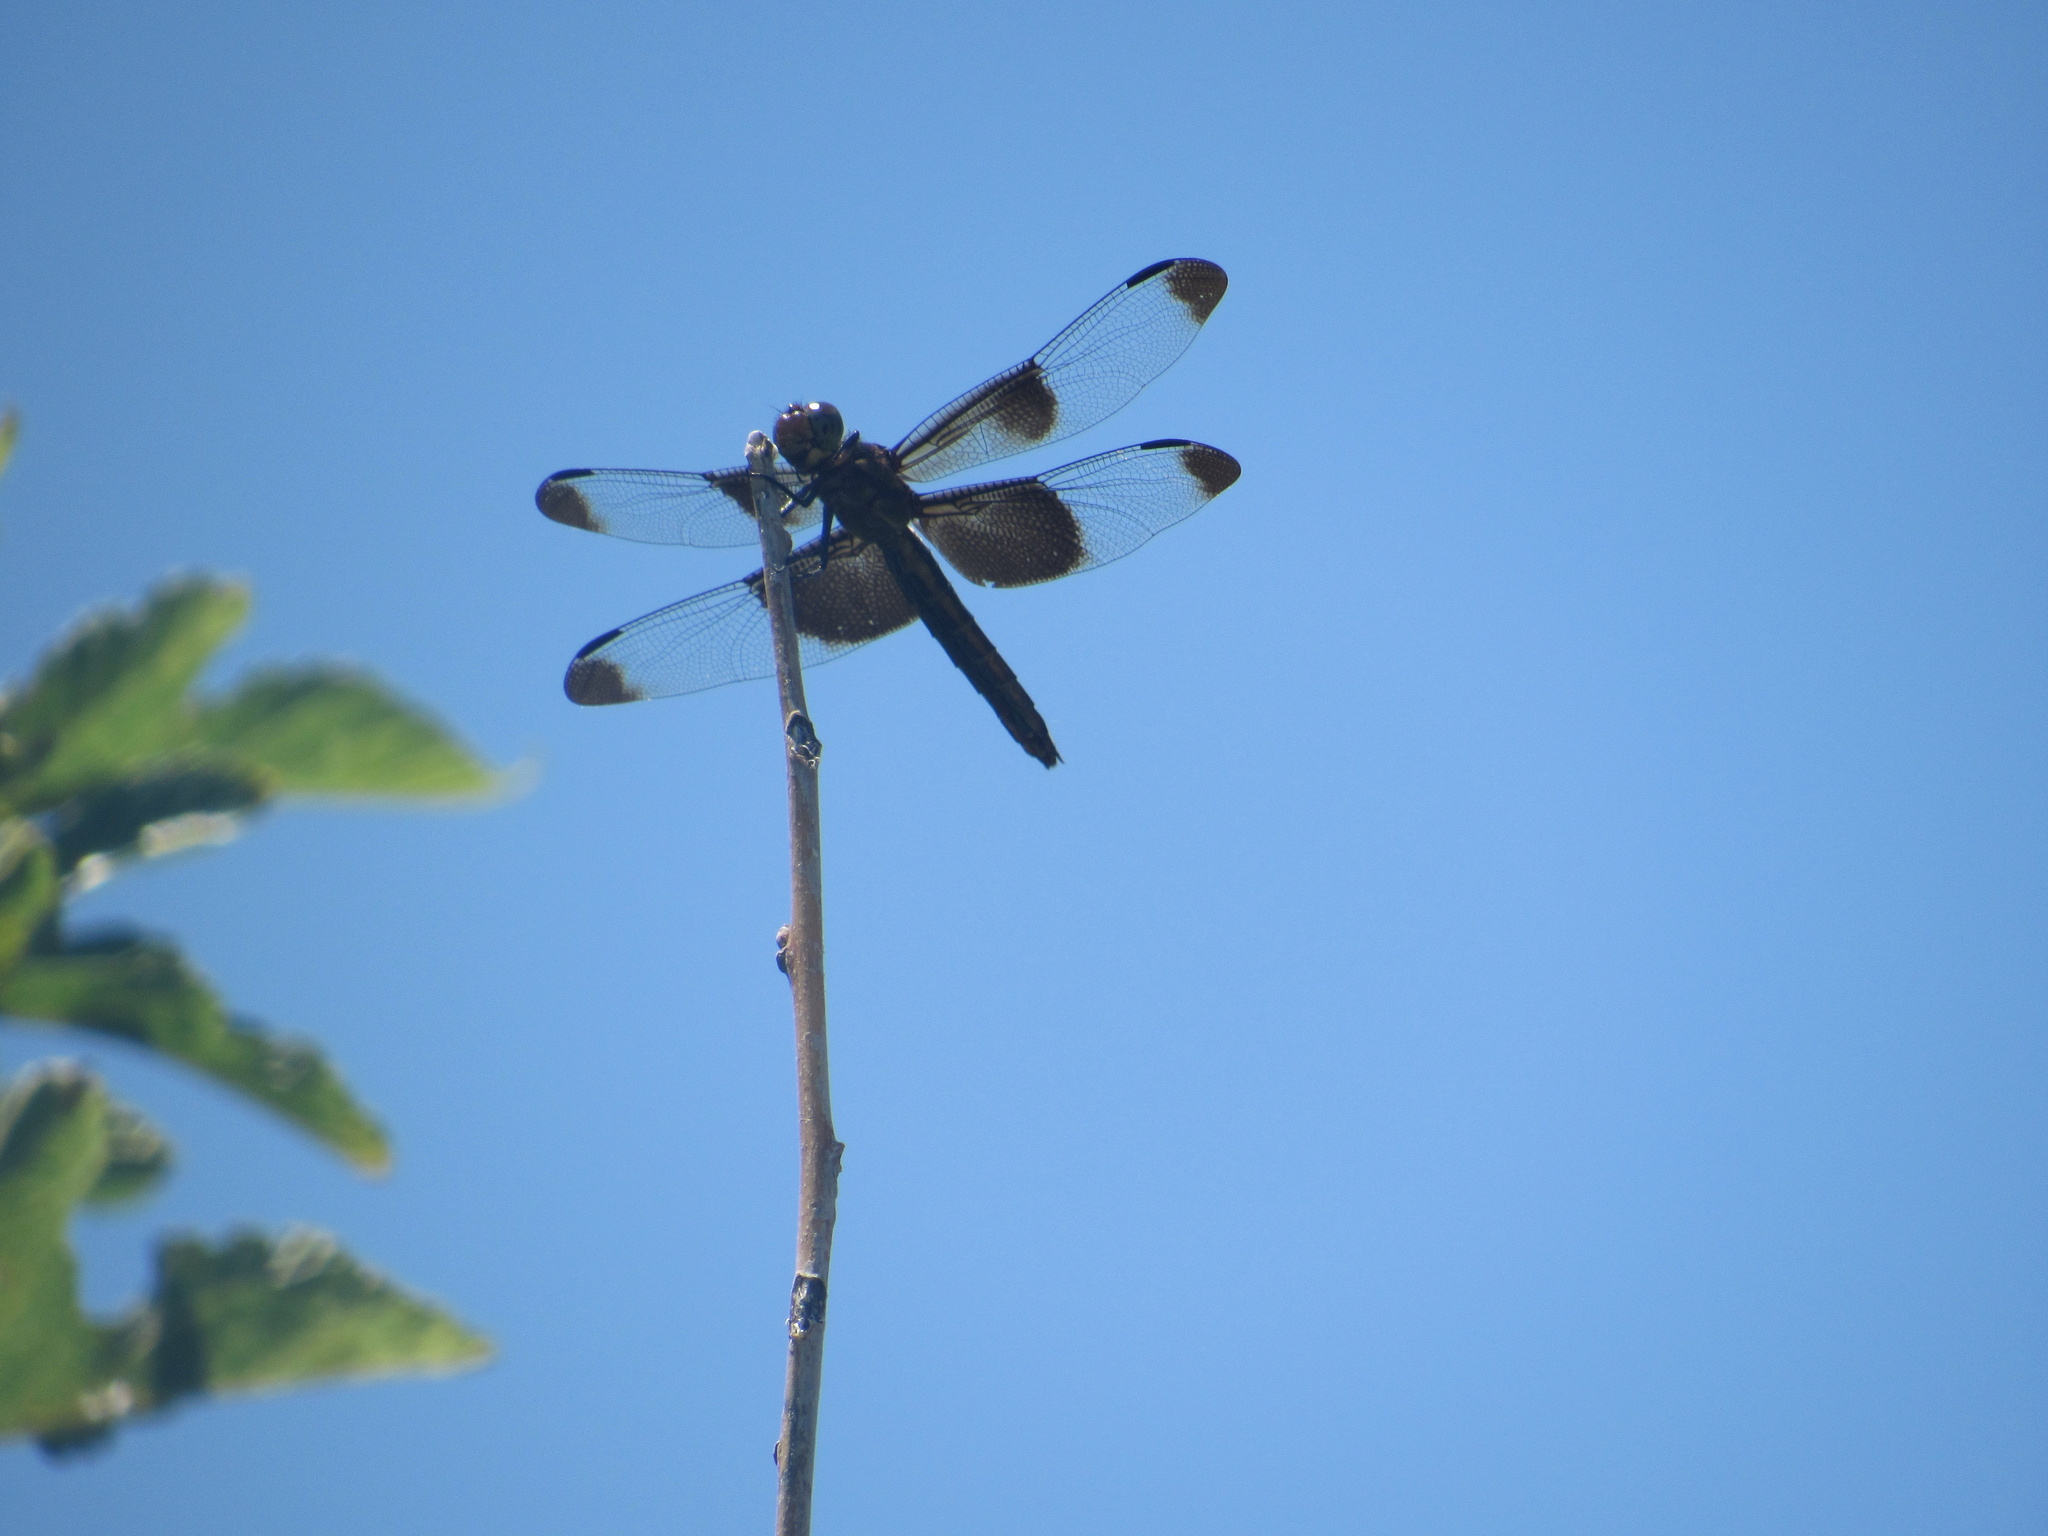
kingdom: Animalia
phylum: Arthropoda
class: Insecta
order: Odonata
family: Libellulidae
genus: Libellula
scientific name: Libellula luctuosa
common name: Widow skimmer
